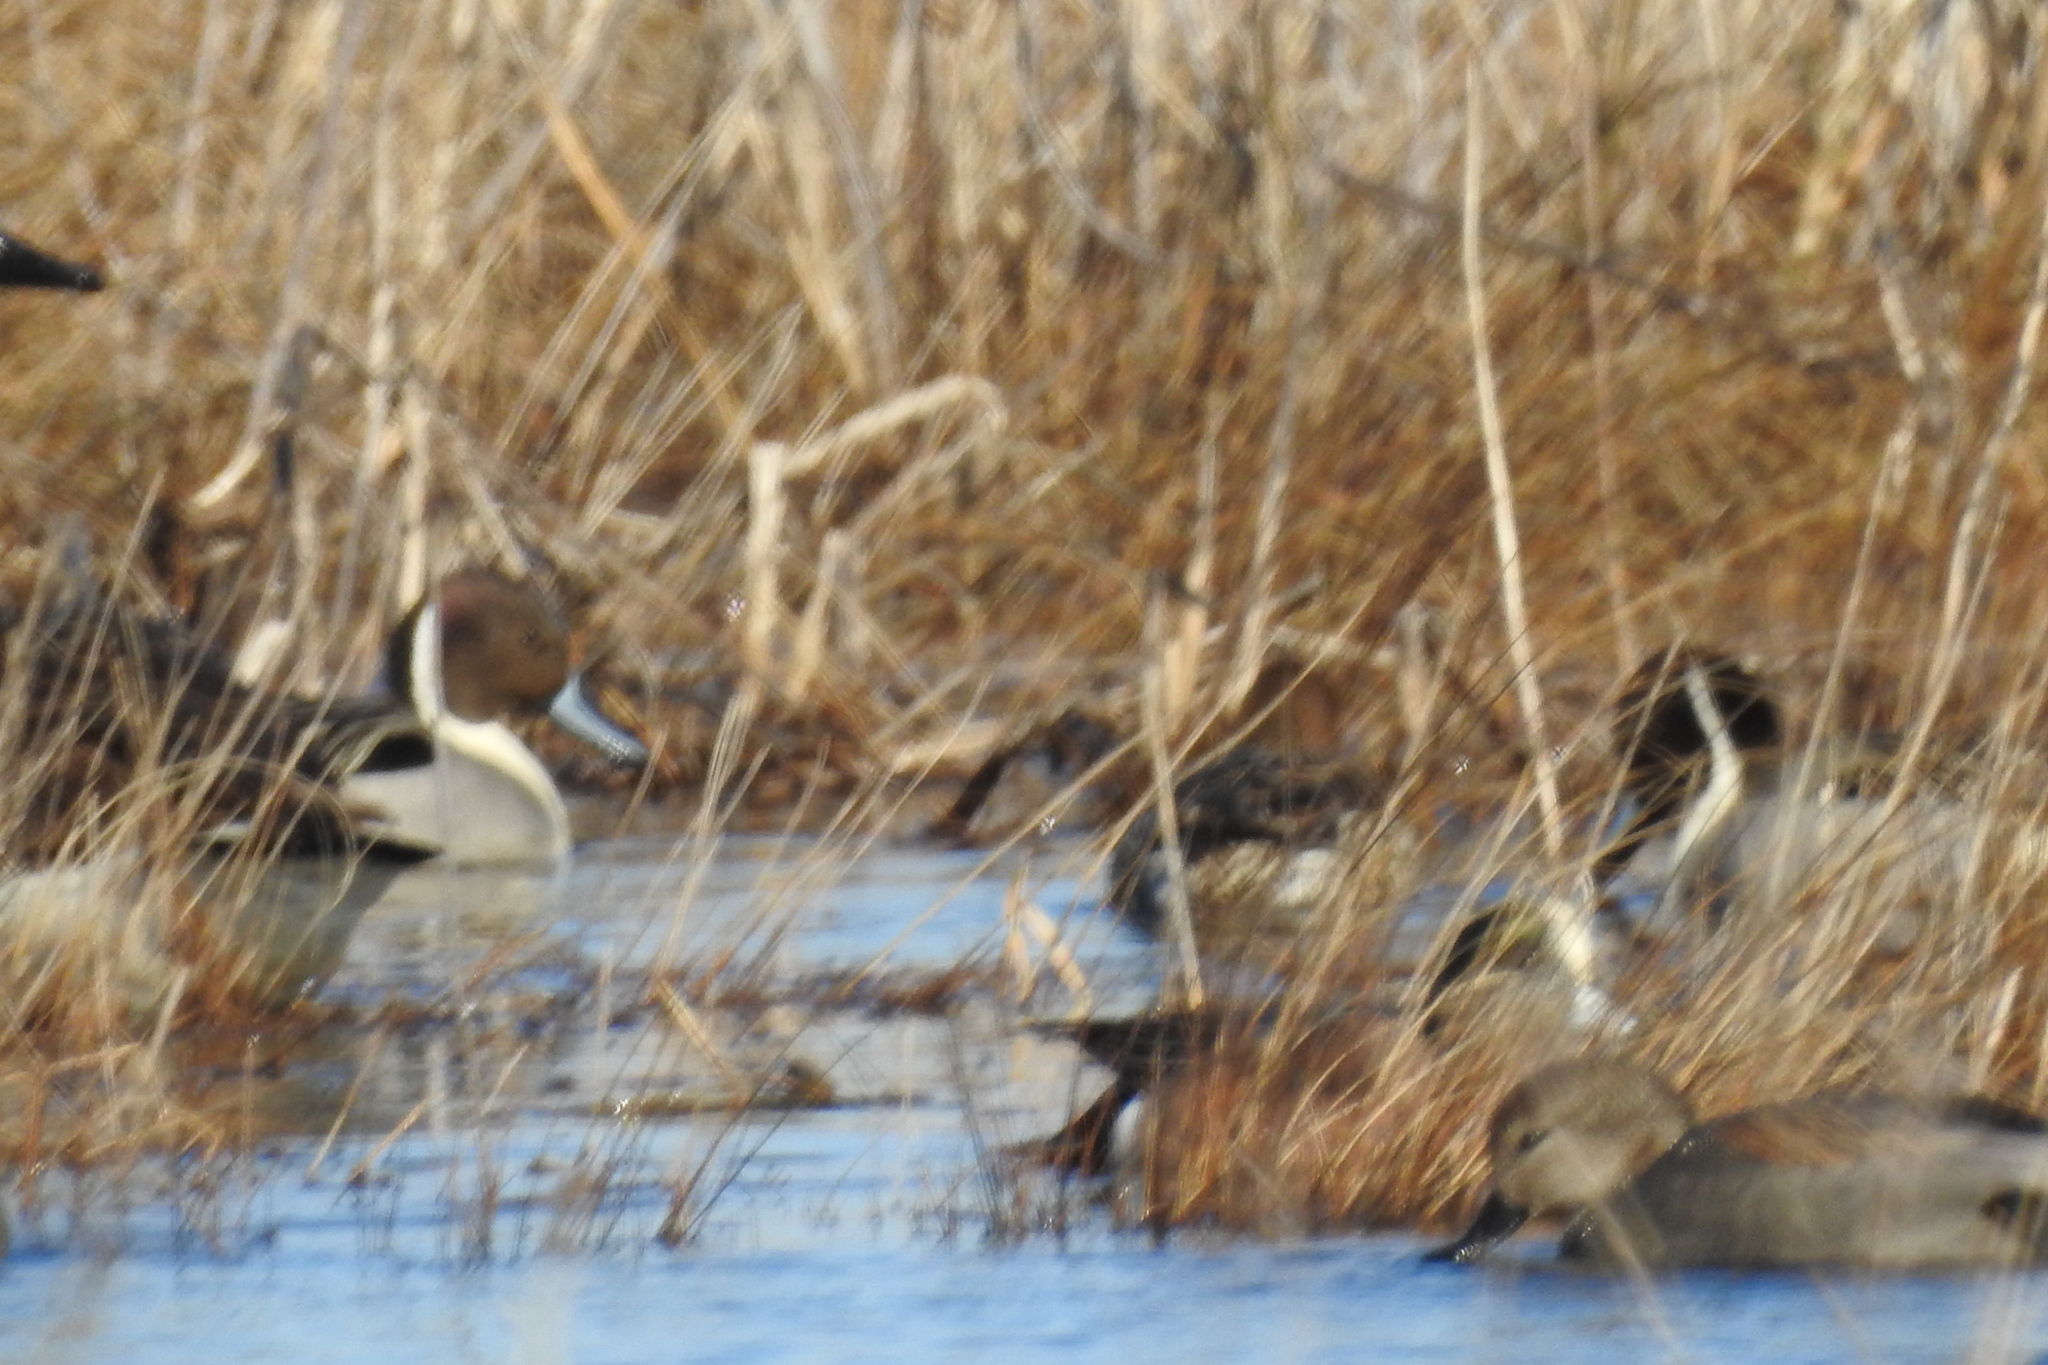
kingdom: Animalia
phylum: Chordata
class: Aves
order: Anseriformes
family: Anatidae
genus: Anas
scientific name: Anas acuta
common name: Northern pintail
